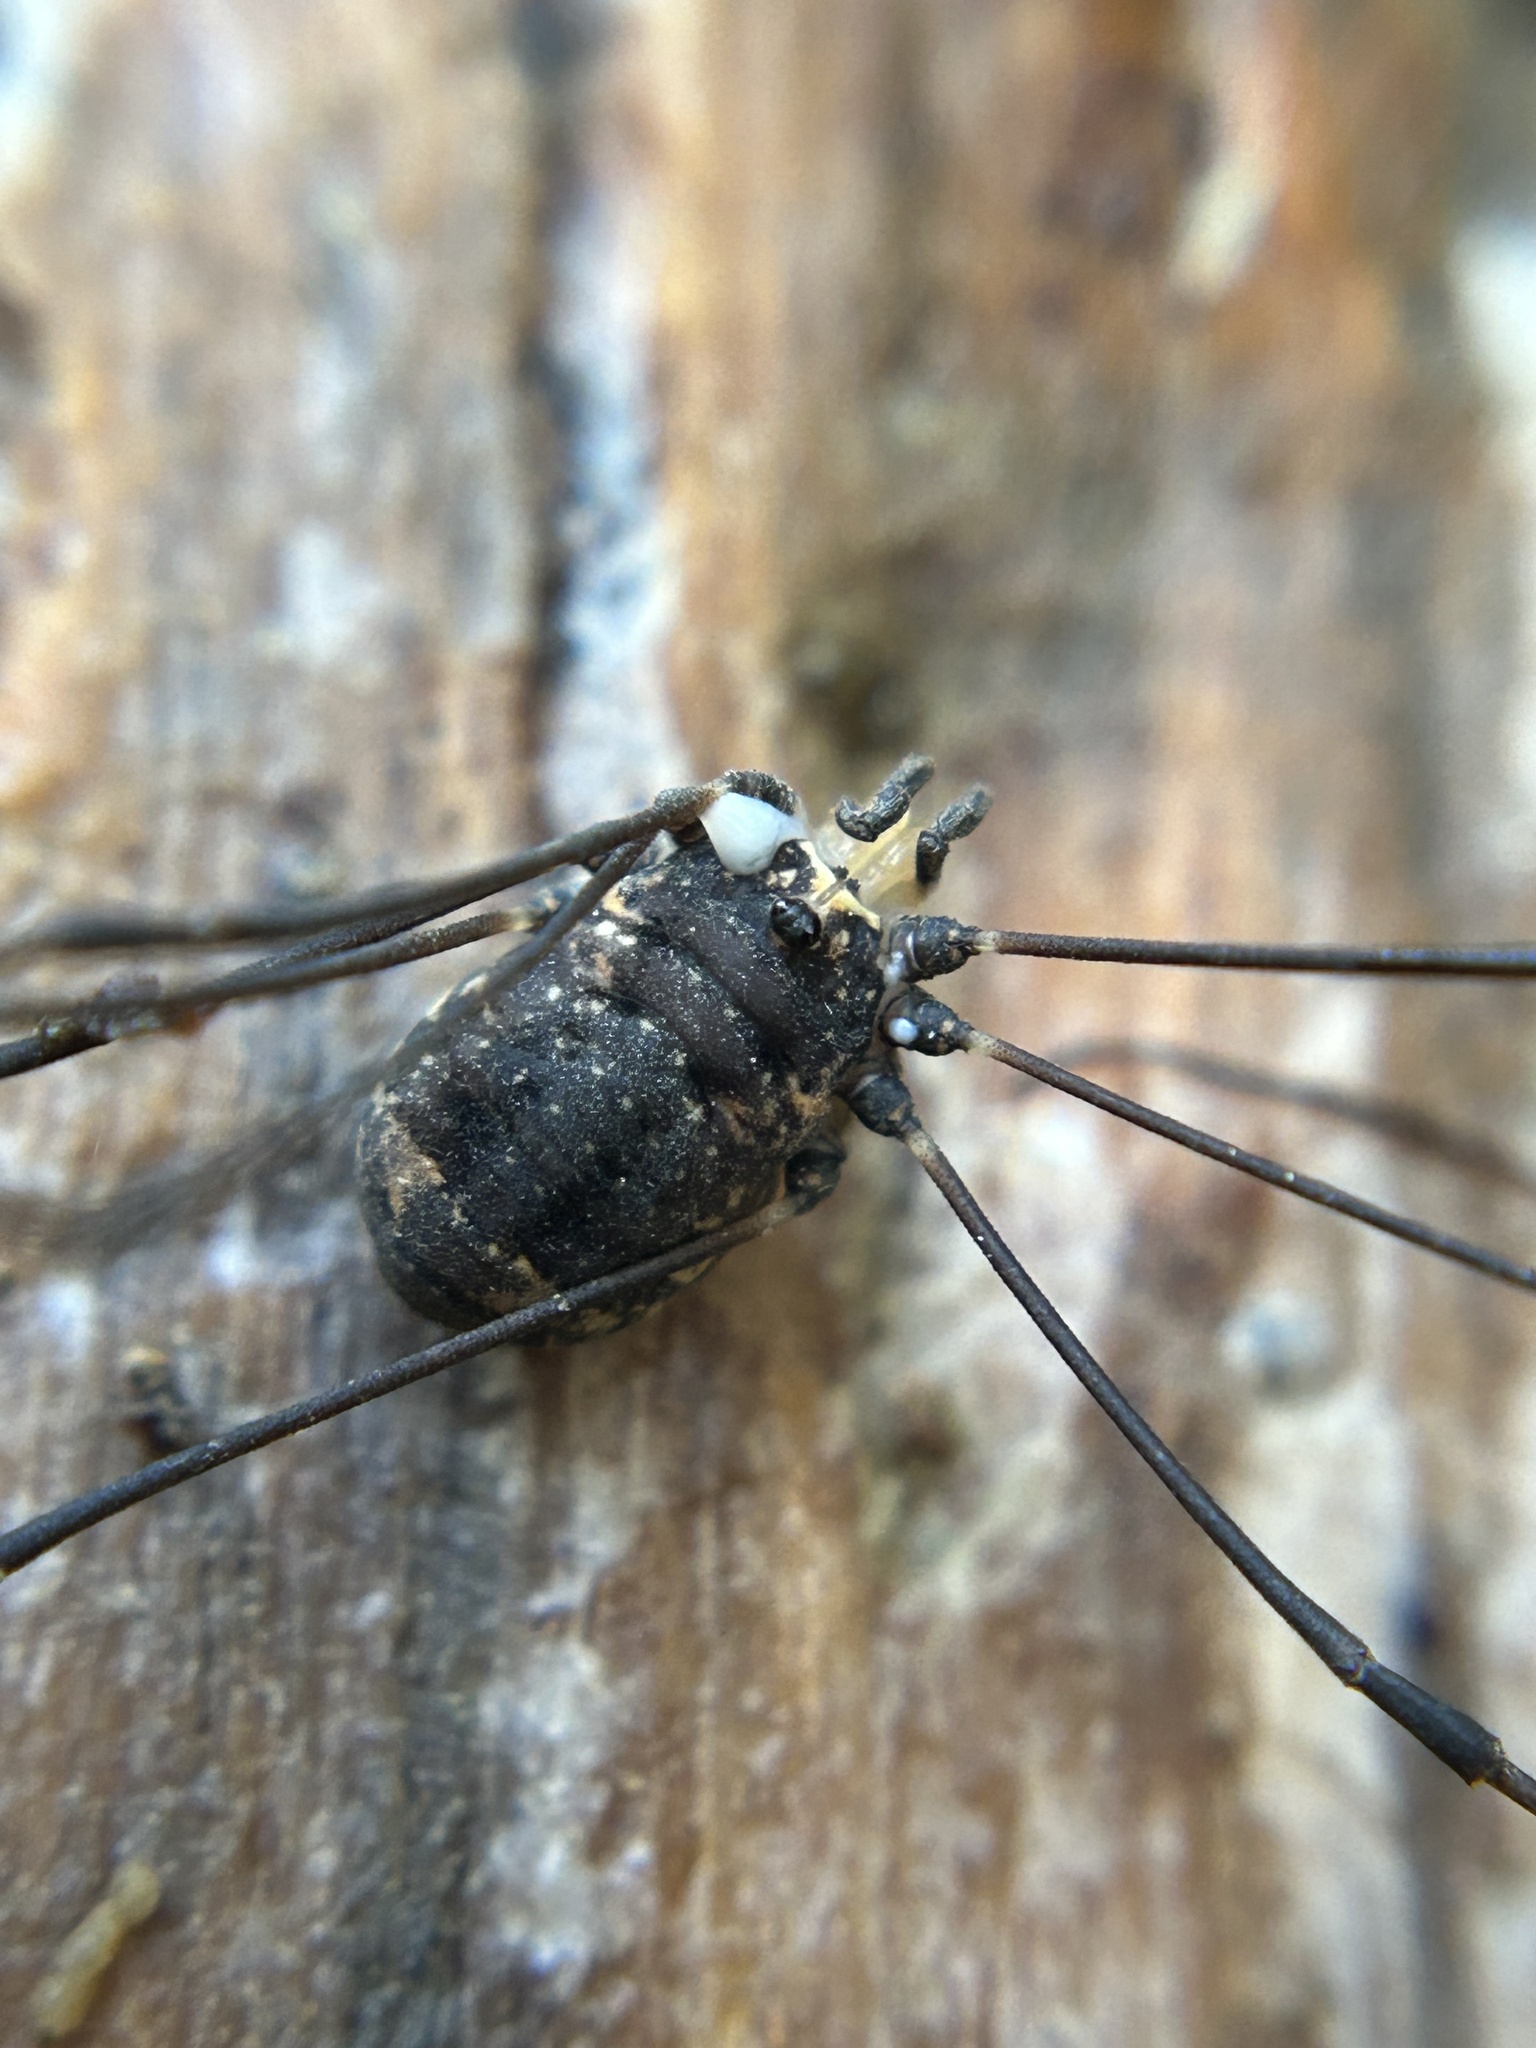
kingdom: Animalia
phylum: Arthropoda
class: Arachnida
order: Opiliones
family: Sclerosomatidae
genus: Leiobunum
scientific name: Leiobunum exilipes
